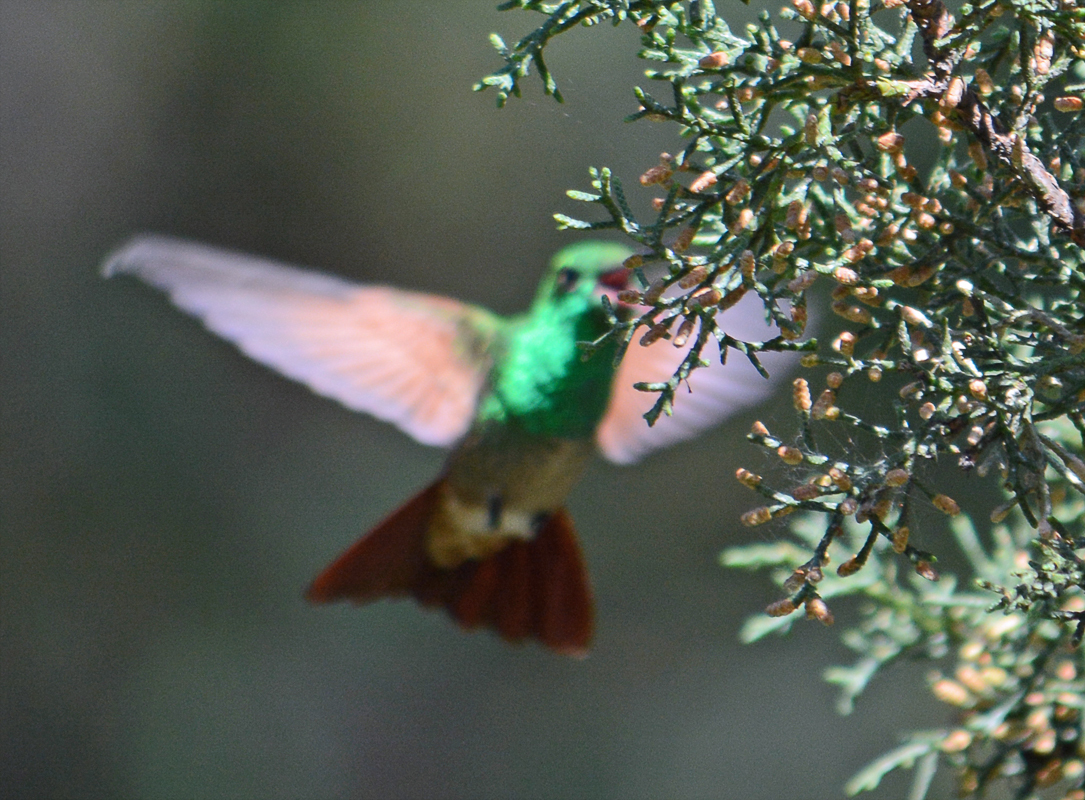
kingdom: Animalia
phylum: Chordata
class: Aves
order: Apodiformes
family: Trochilidae
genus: Saucerottia
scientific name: Saucerottia beryllina
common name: Berylline hummingbird
